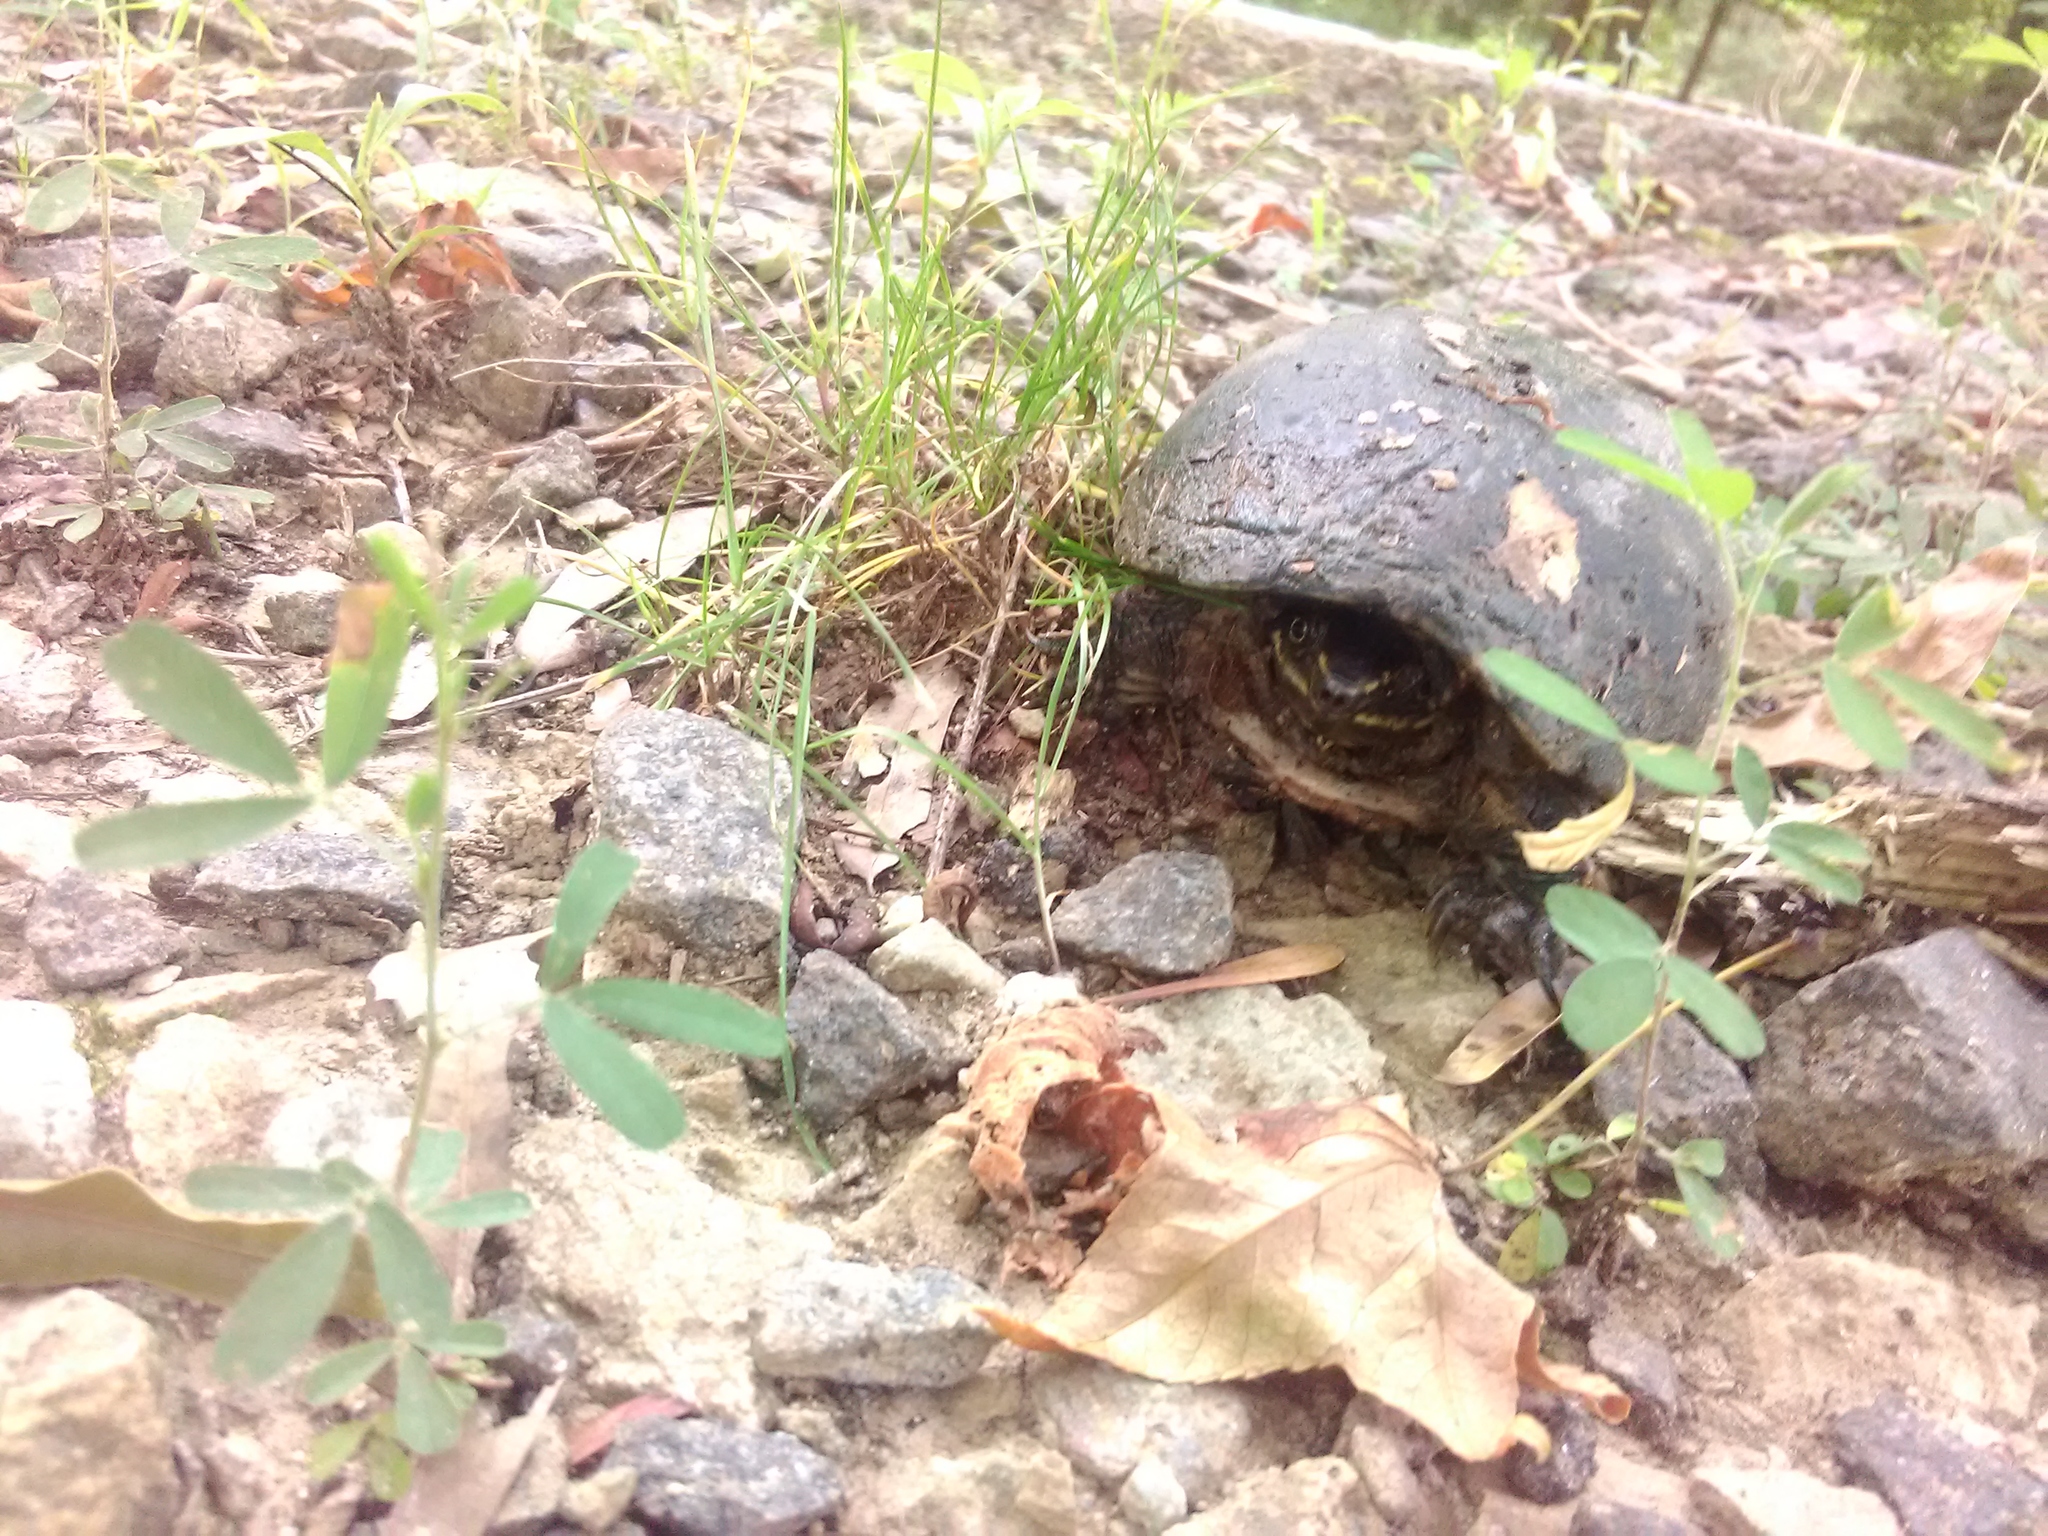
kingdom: Animalia
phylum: Chordata
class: Testudines
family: Kinosternidae
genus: Sternotherus
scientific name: Sternotherus odoratus
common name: Common musk turtle
